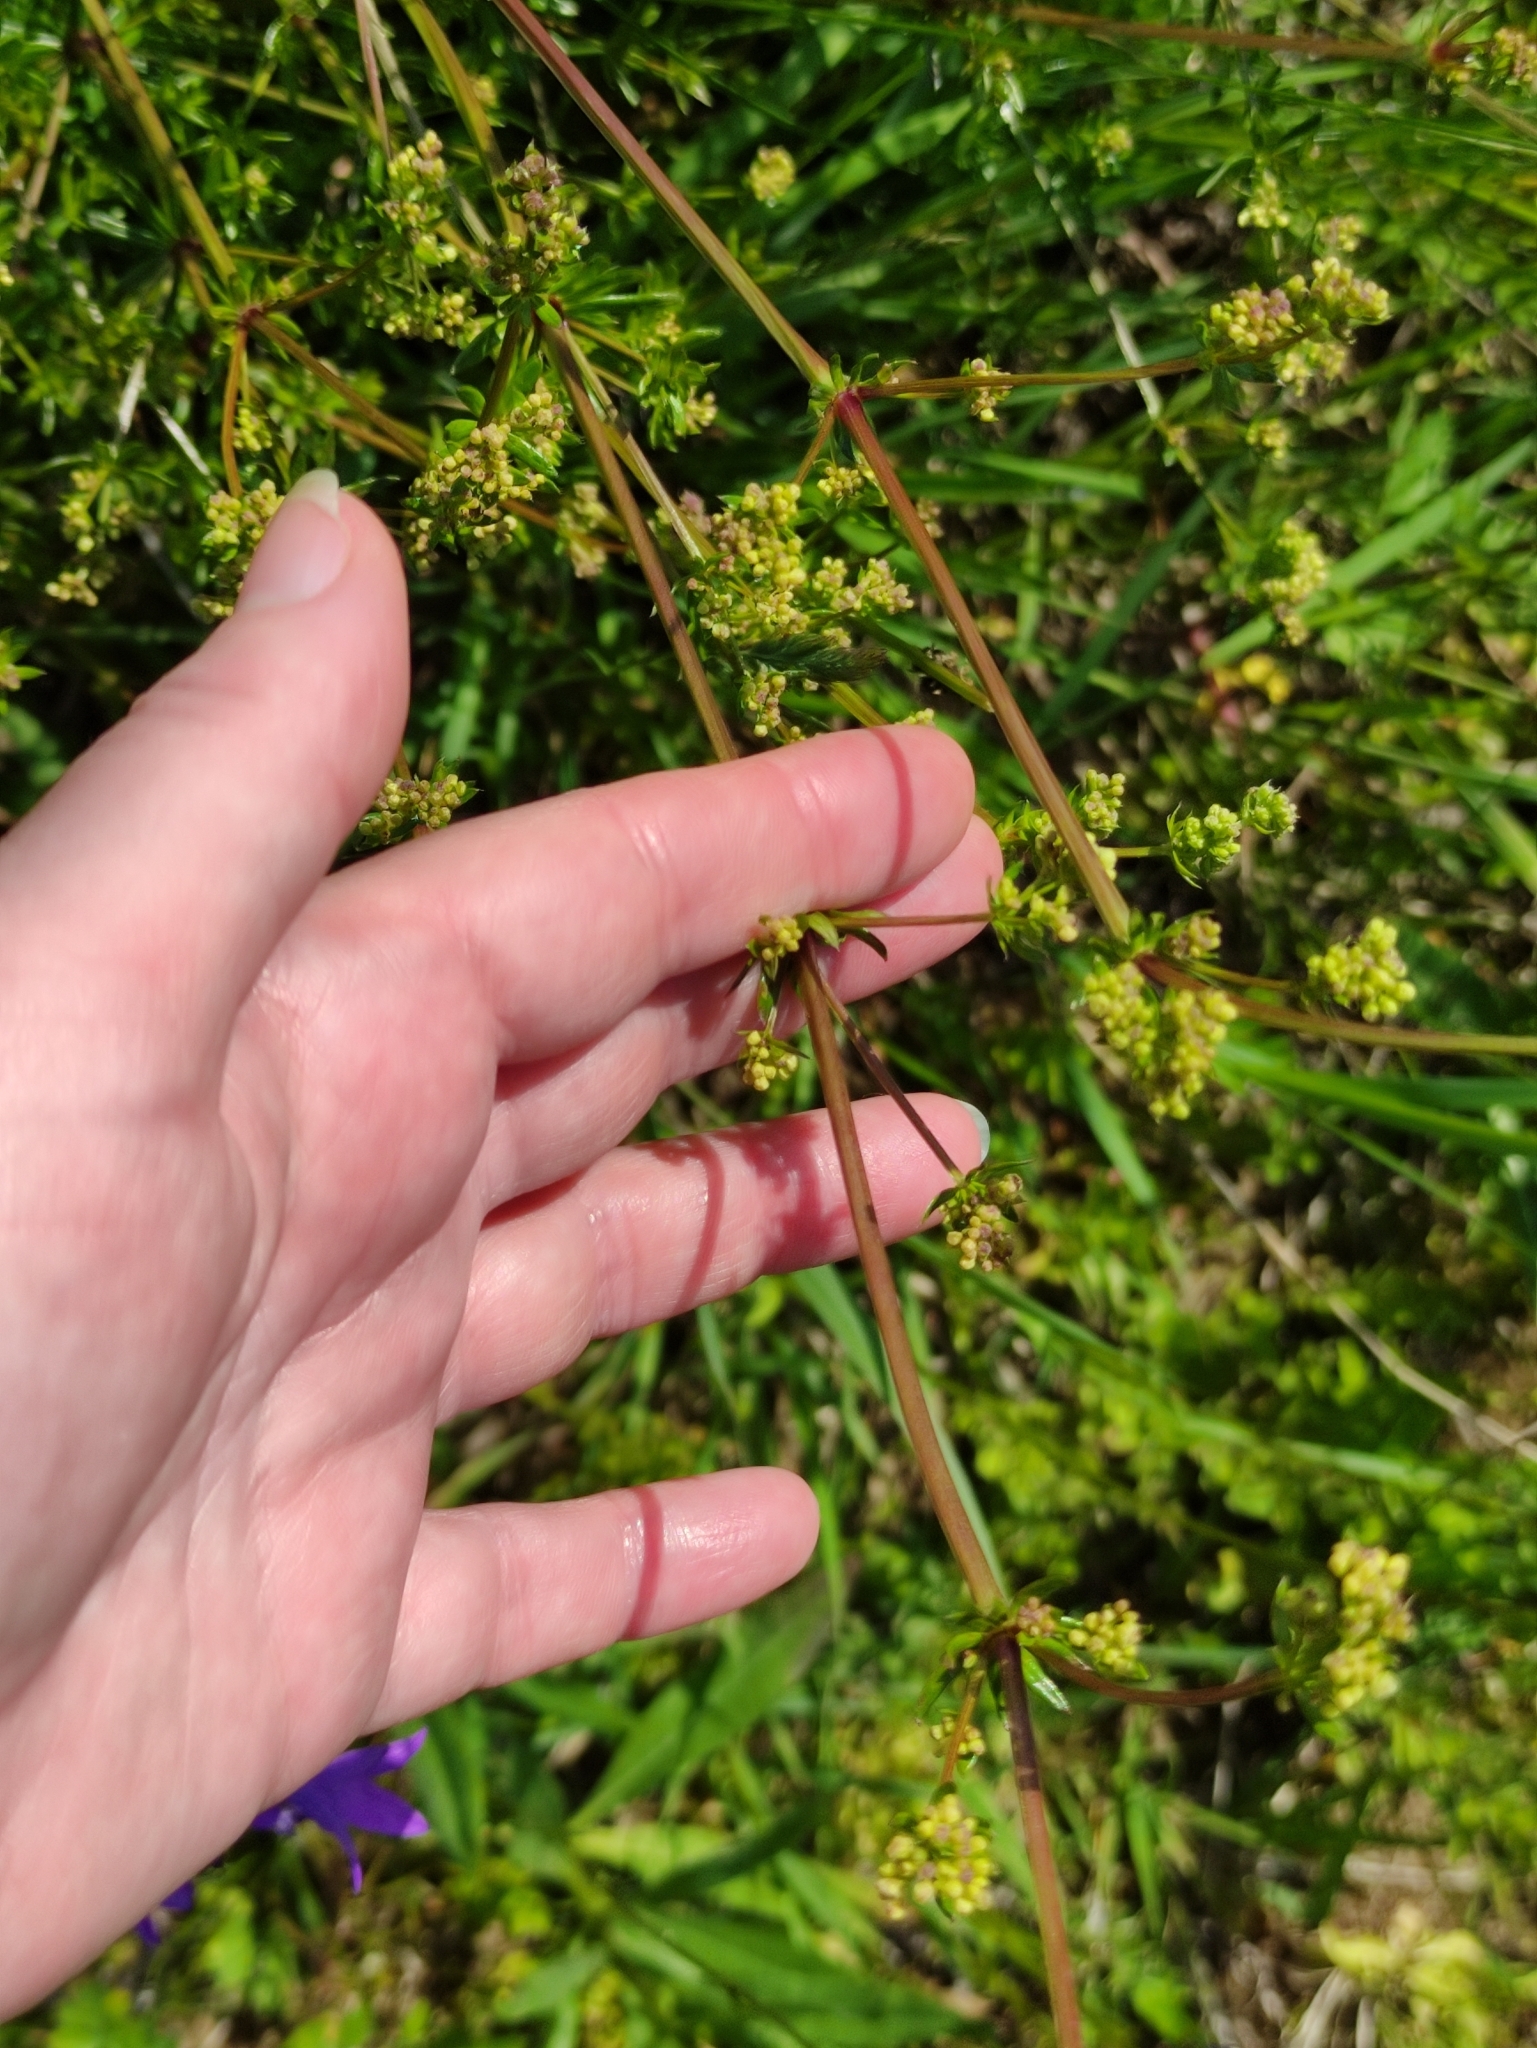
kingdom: Plantae
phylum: Tracheophyta
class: Magnoliopsida
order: Gentianales
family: Rubiaceae
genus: Galium
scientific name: Galium mollugo
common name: Hedge bedstraw
